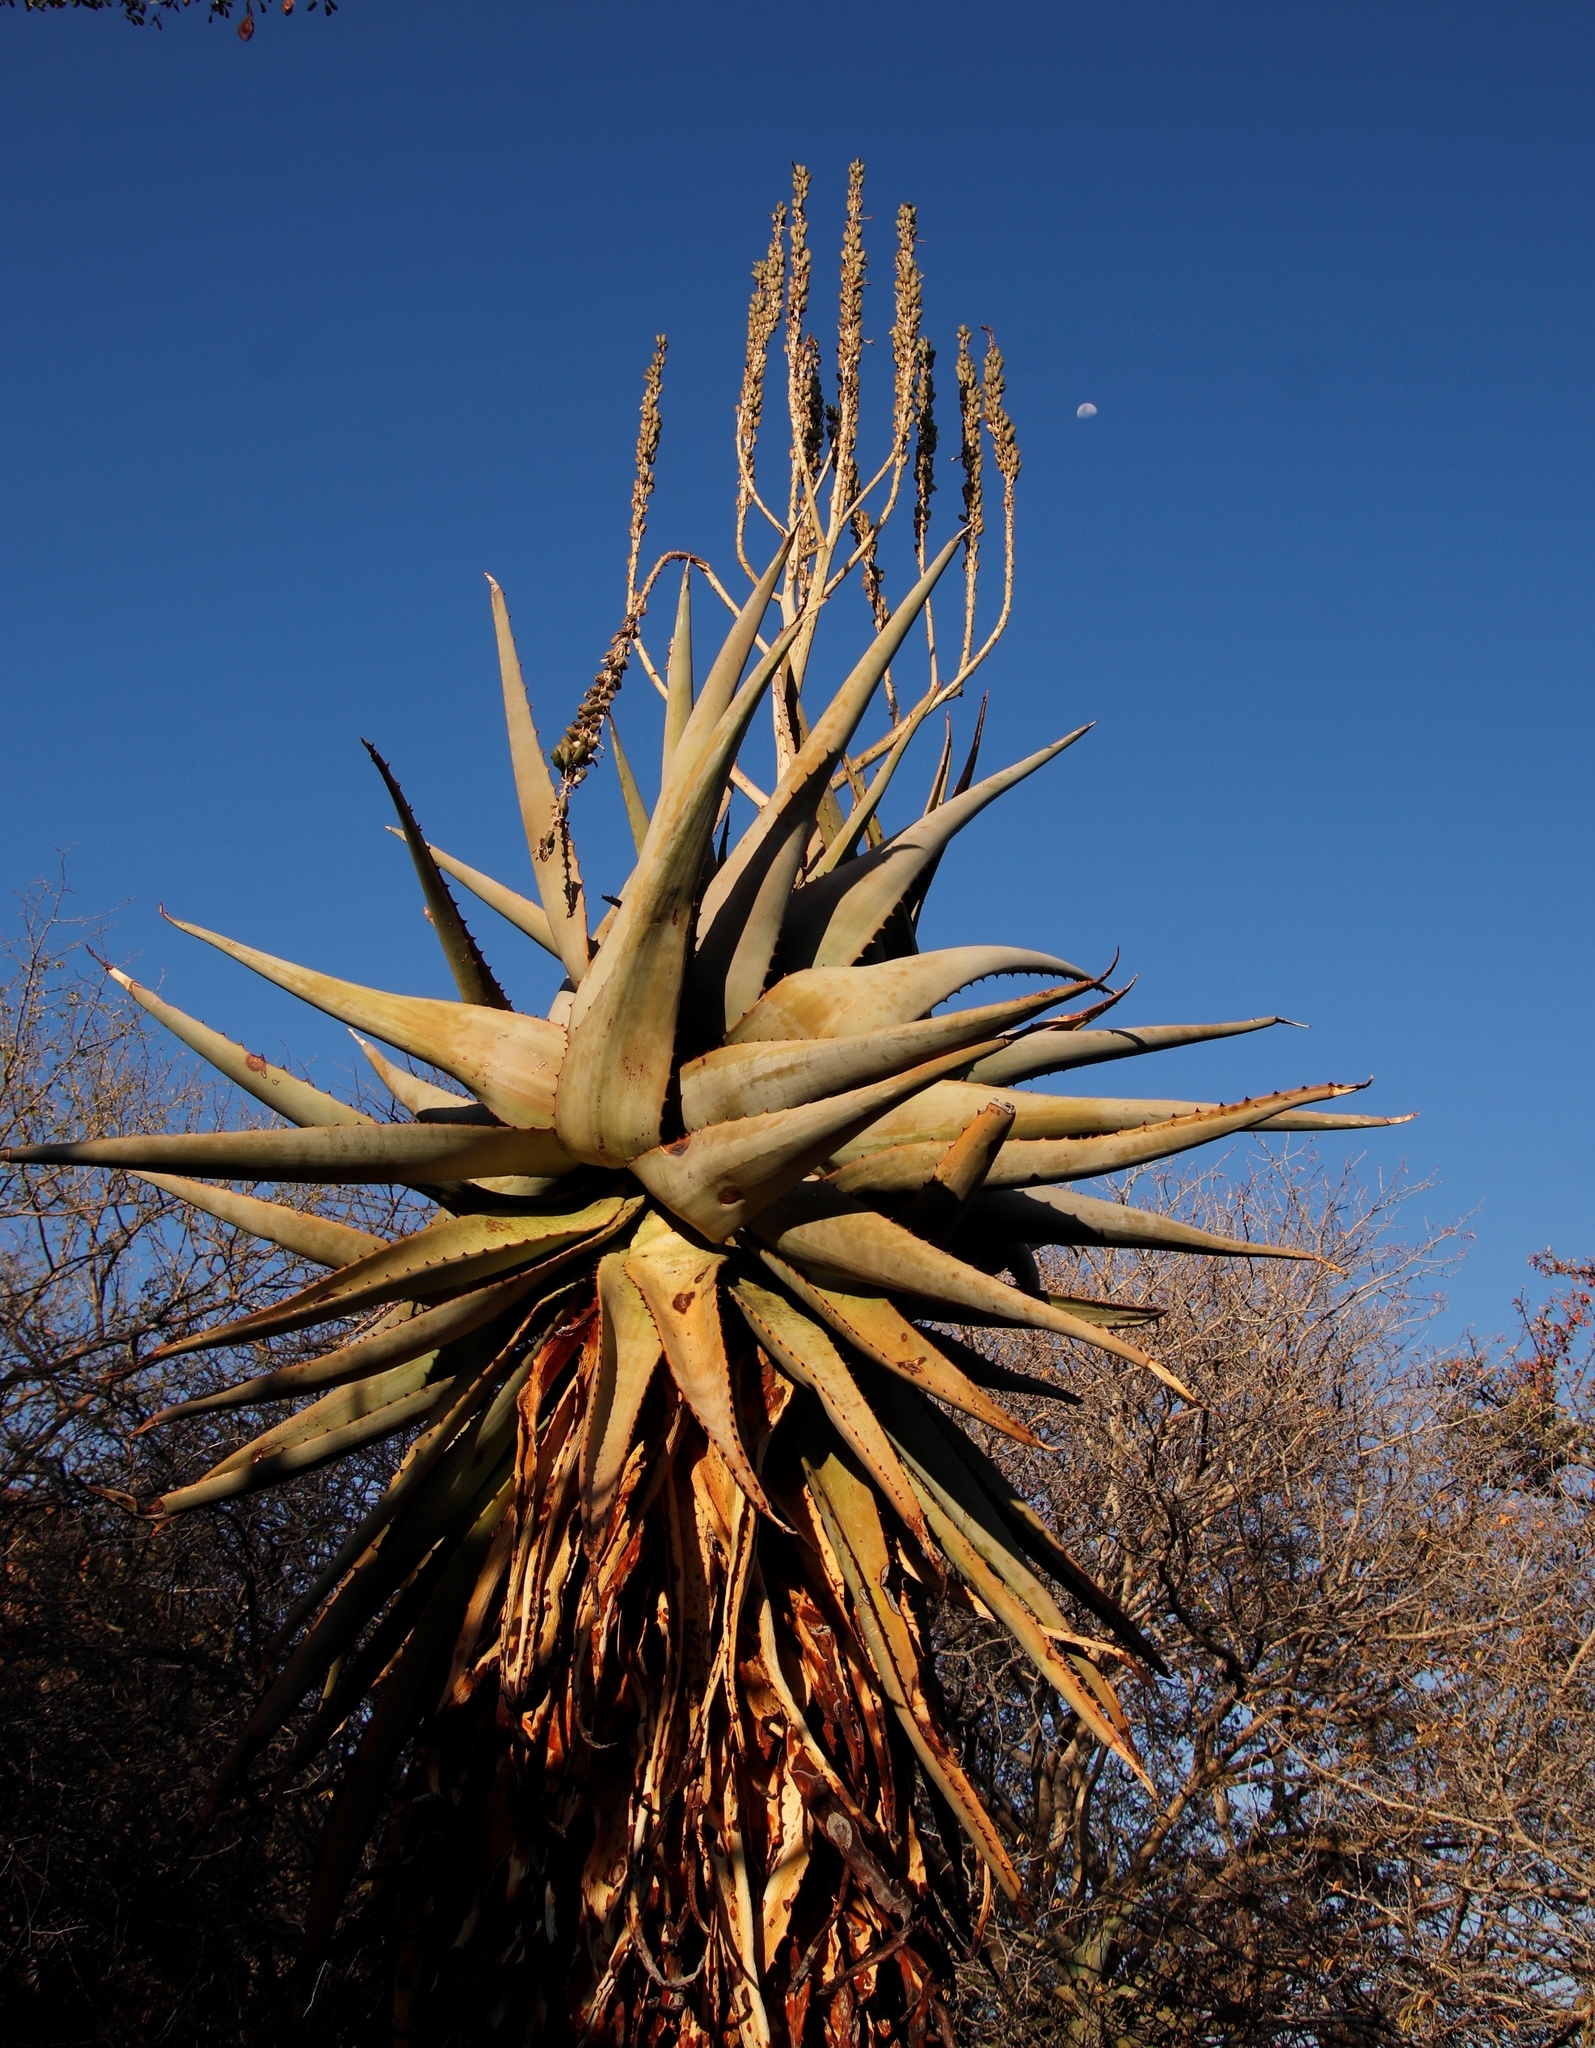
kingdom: Plantae
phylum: Tracheophyta
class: Liliopsida
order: Asparagales
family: Asphodelaceae
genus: Aloe
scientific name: Aloe littoralis
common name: Luanda tree aloe
